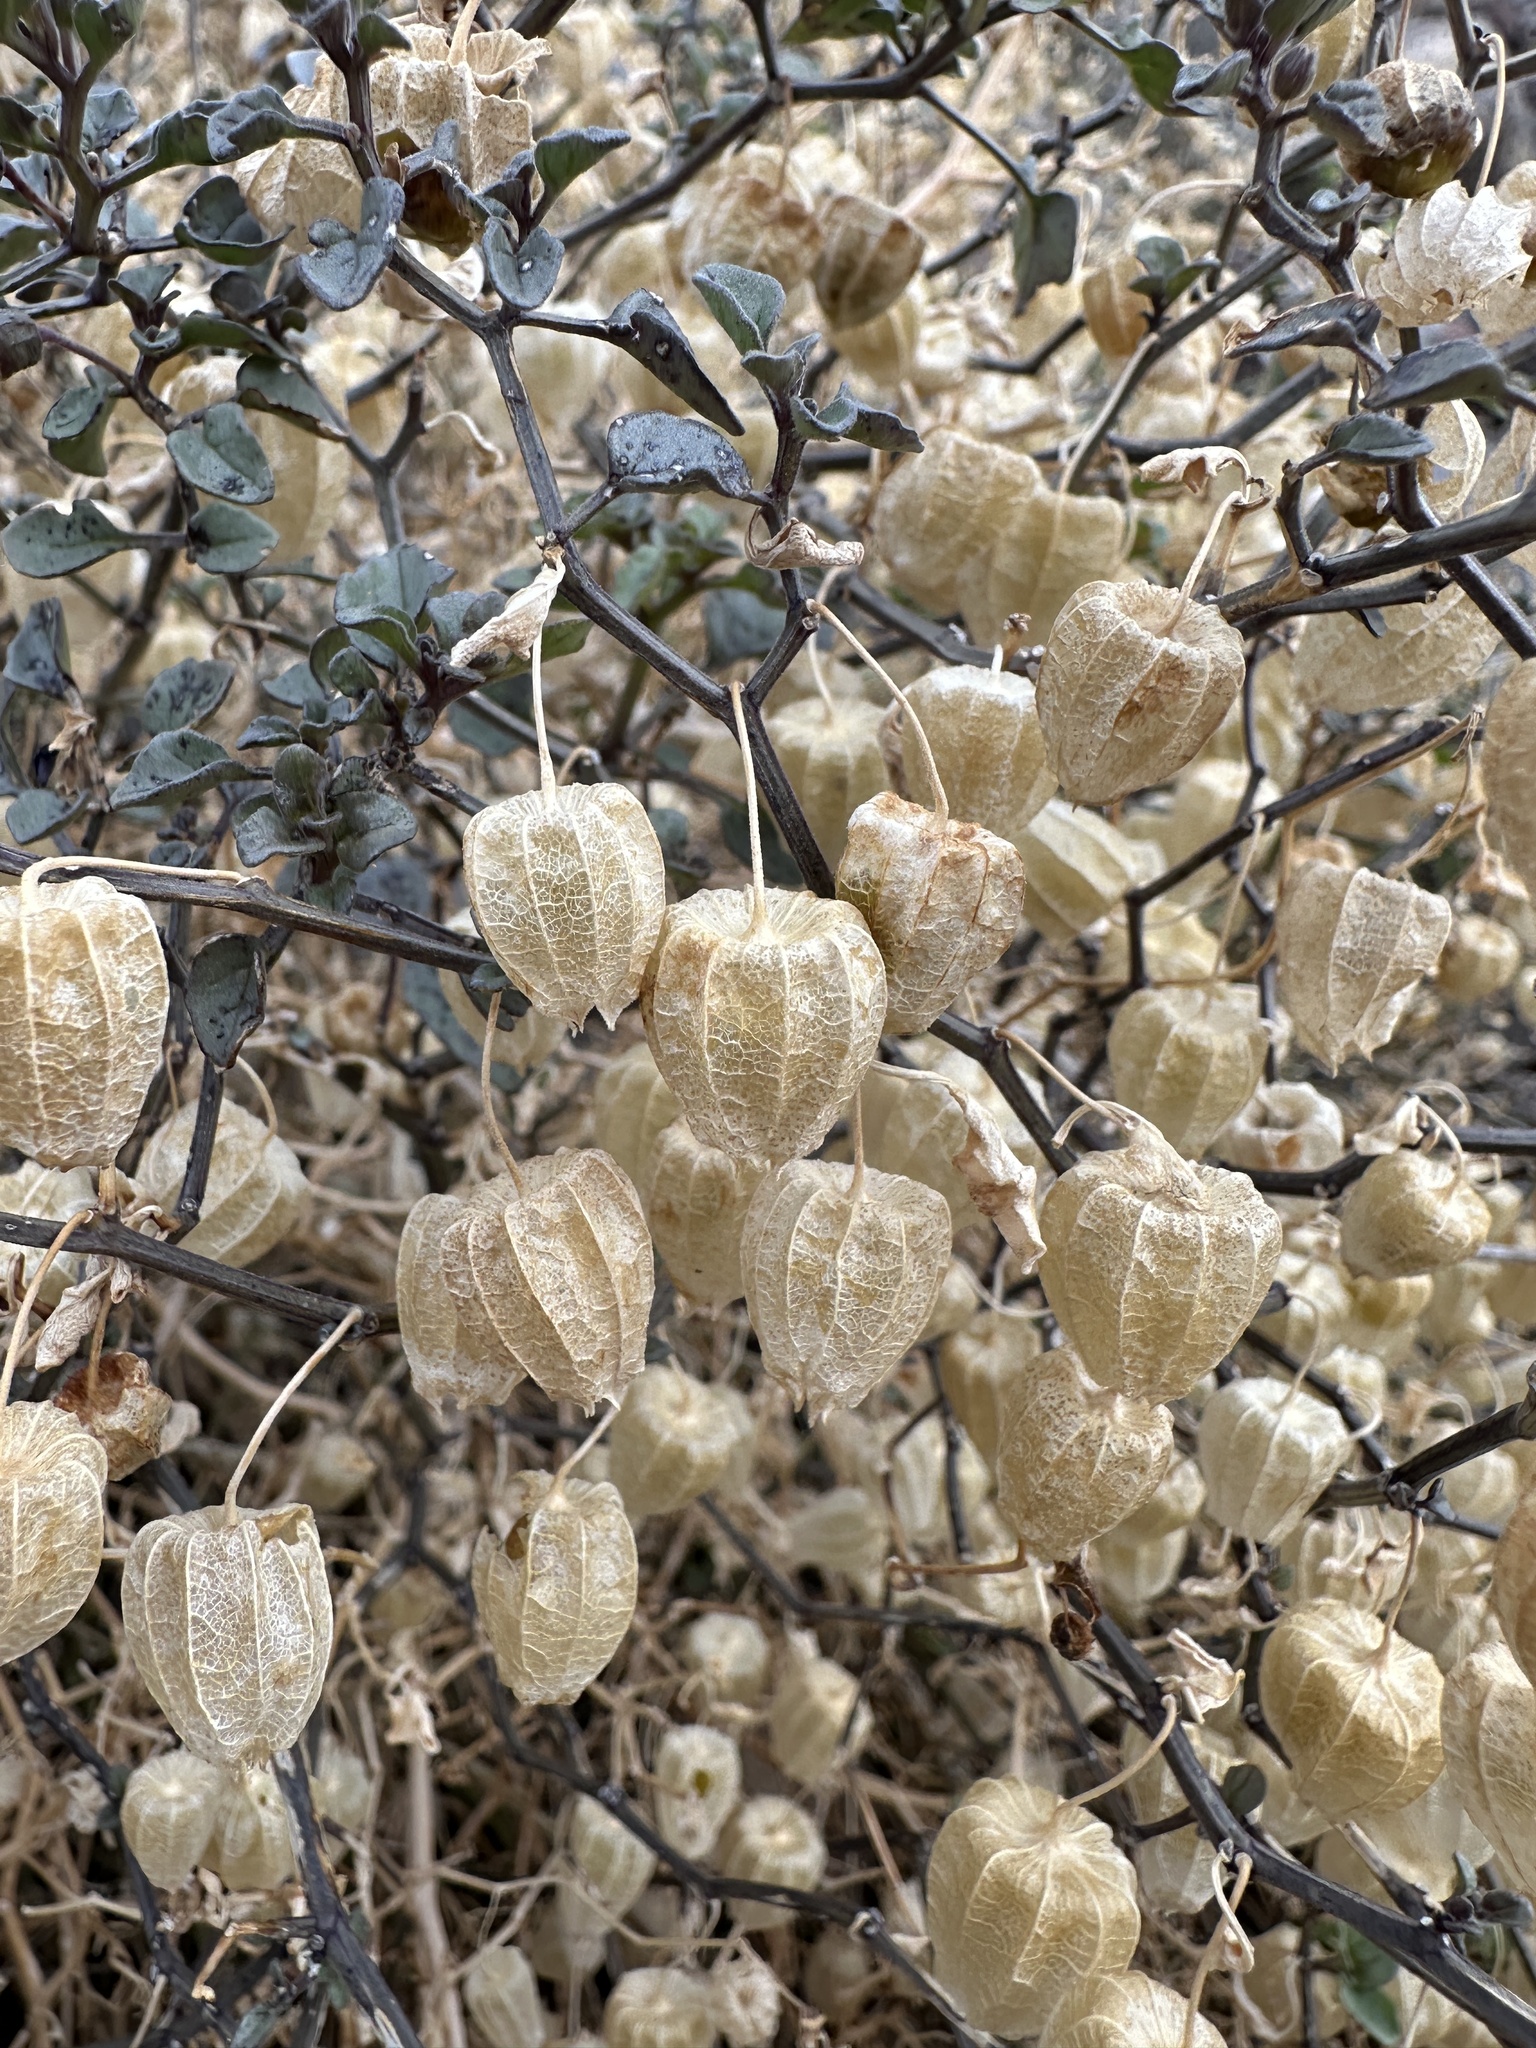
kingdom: Plantae
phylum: Tracheophyta
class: Magnoliopsida
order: Solanales
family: Solanaceae
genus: Physalis
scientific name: Physalis crassifolia
